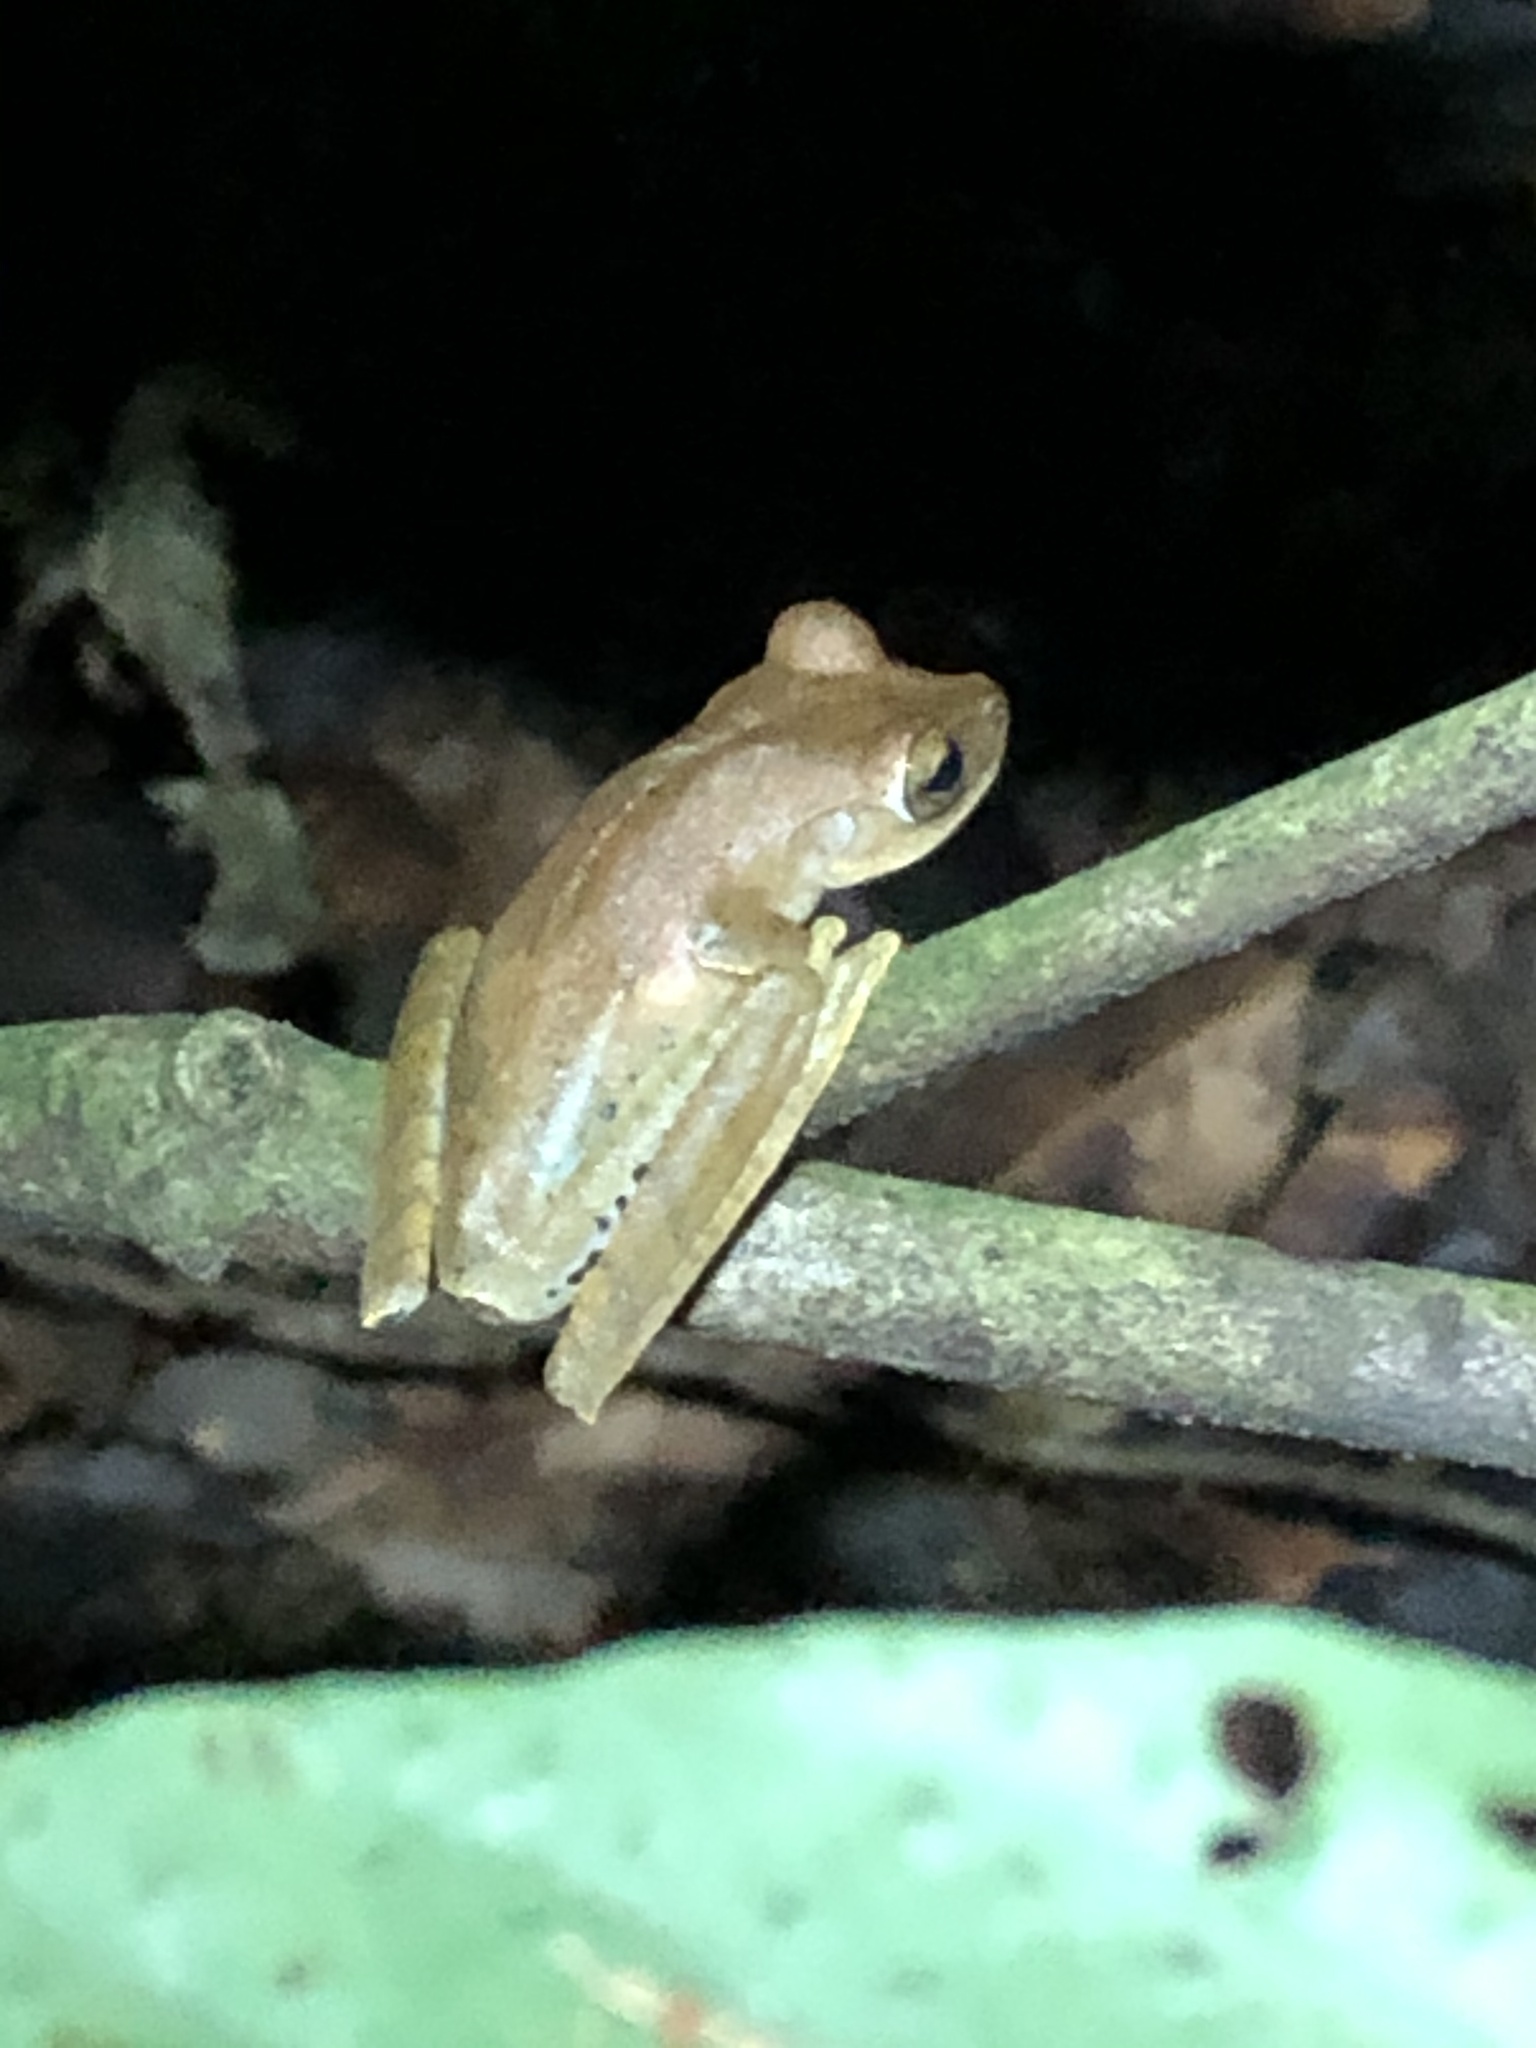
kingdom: Animalia
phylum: Chordata
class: Amphibia
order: Anura
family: Hylidae
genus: Boana
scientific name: Boana maculateralis
